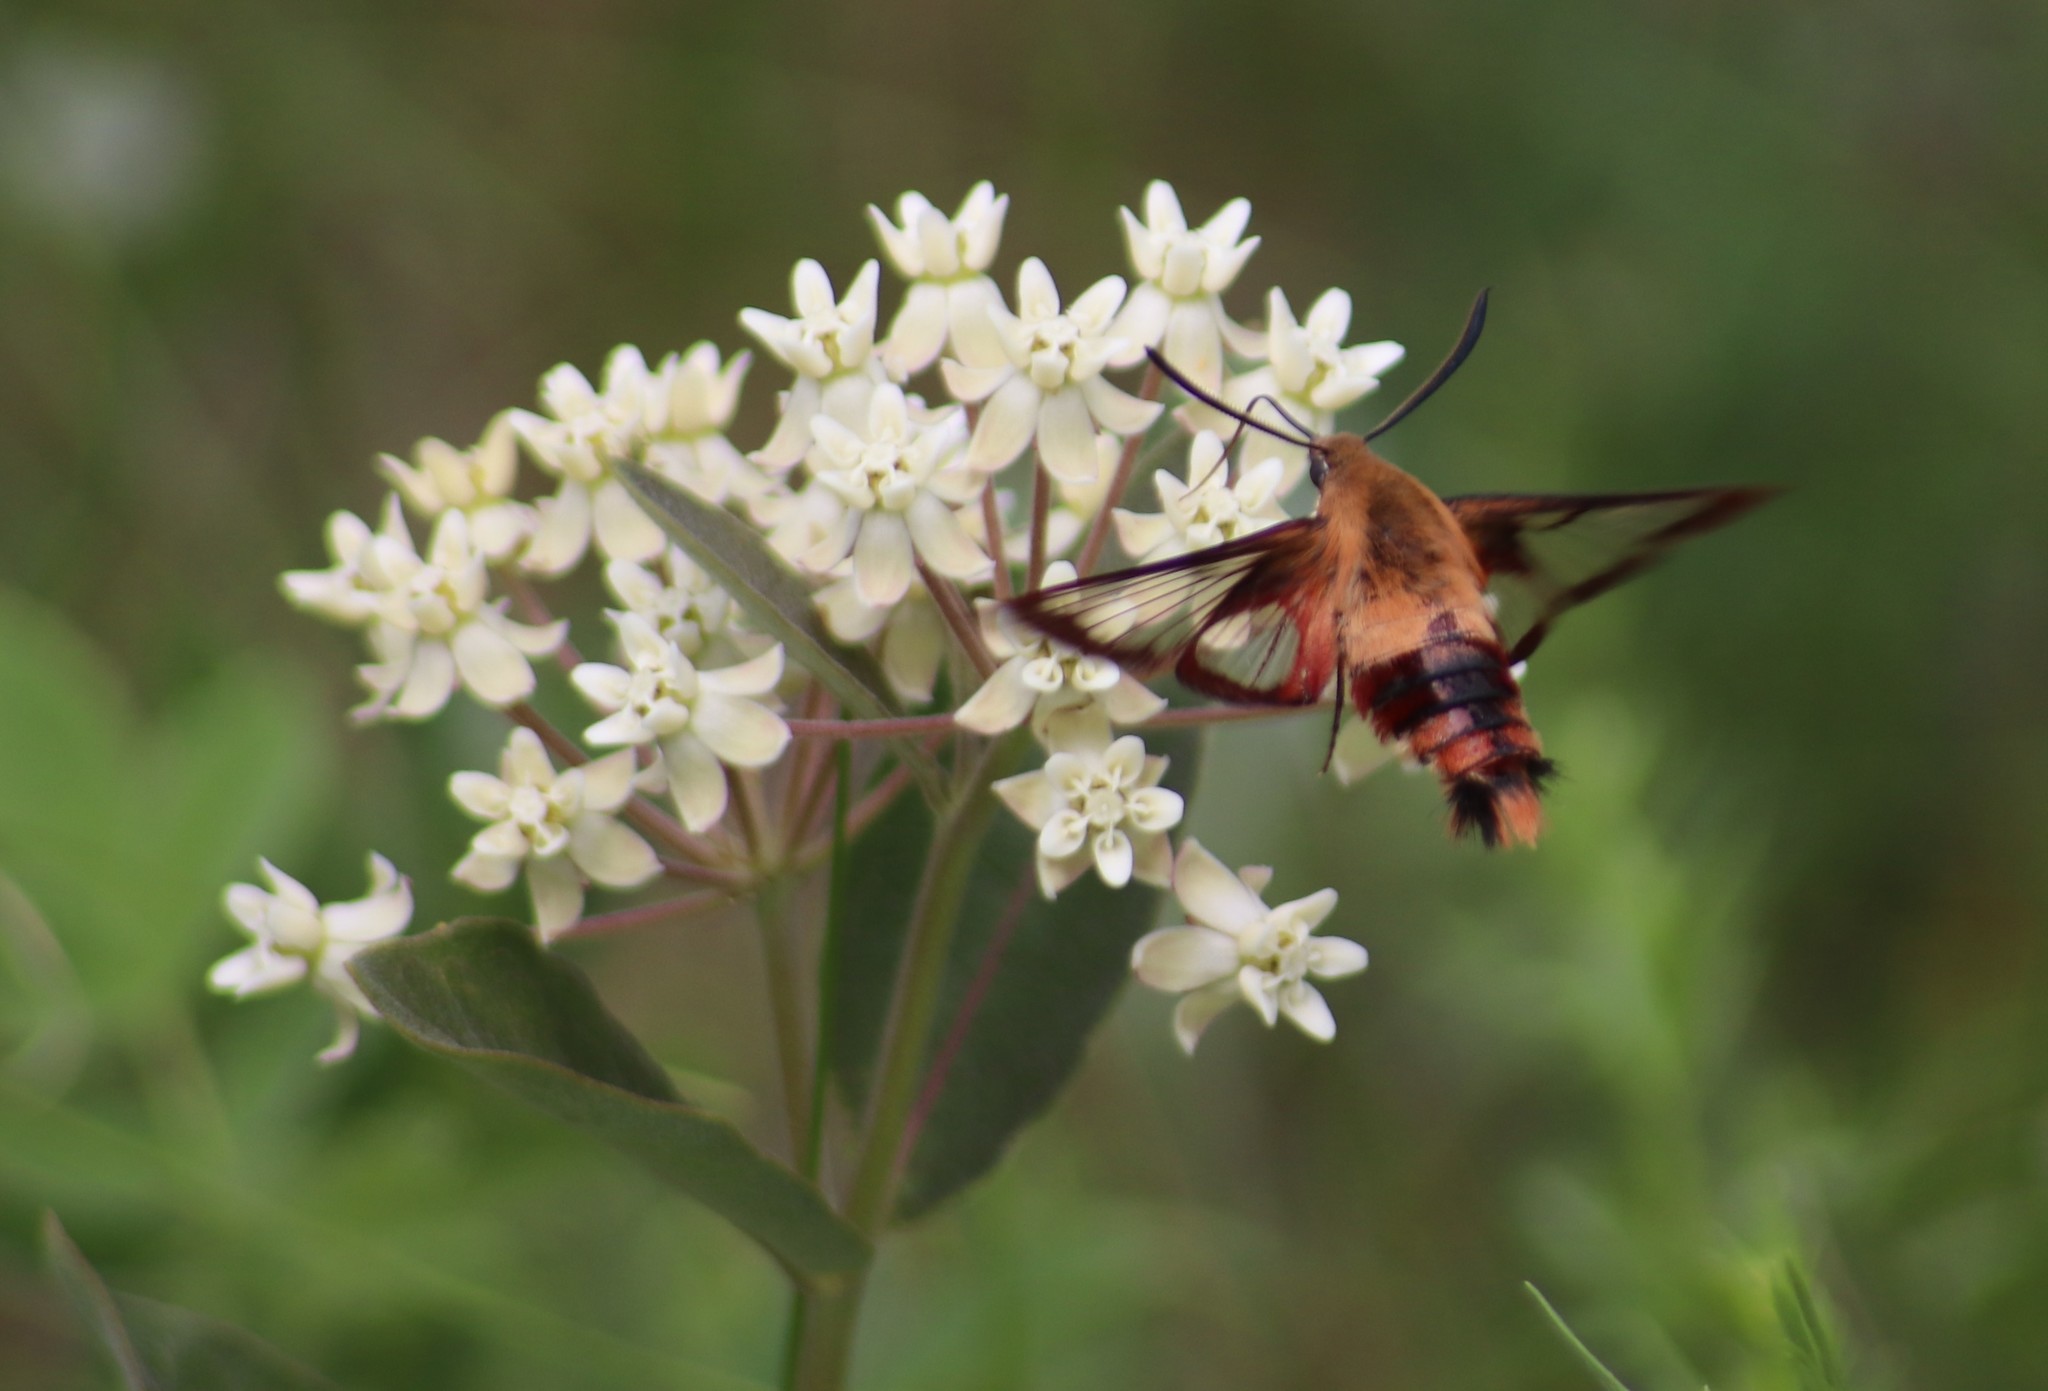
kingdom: Animalia
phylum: Arthropoda
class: Insecta
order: Lepidoptera
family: Sphingidae
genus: Hemaris
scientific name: Hemaris thysbe
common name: Common clear-wing
